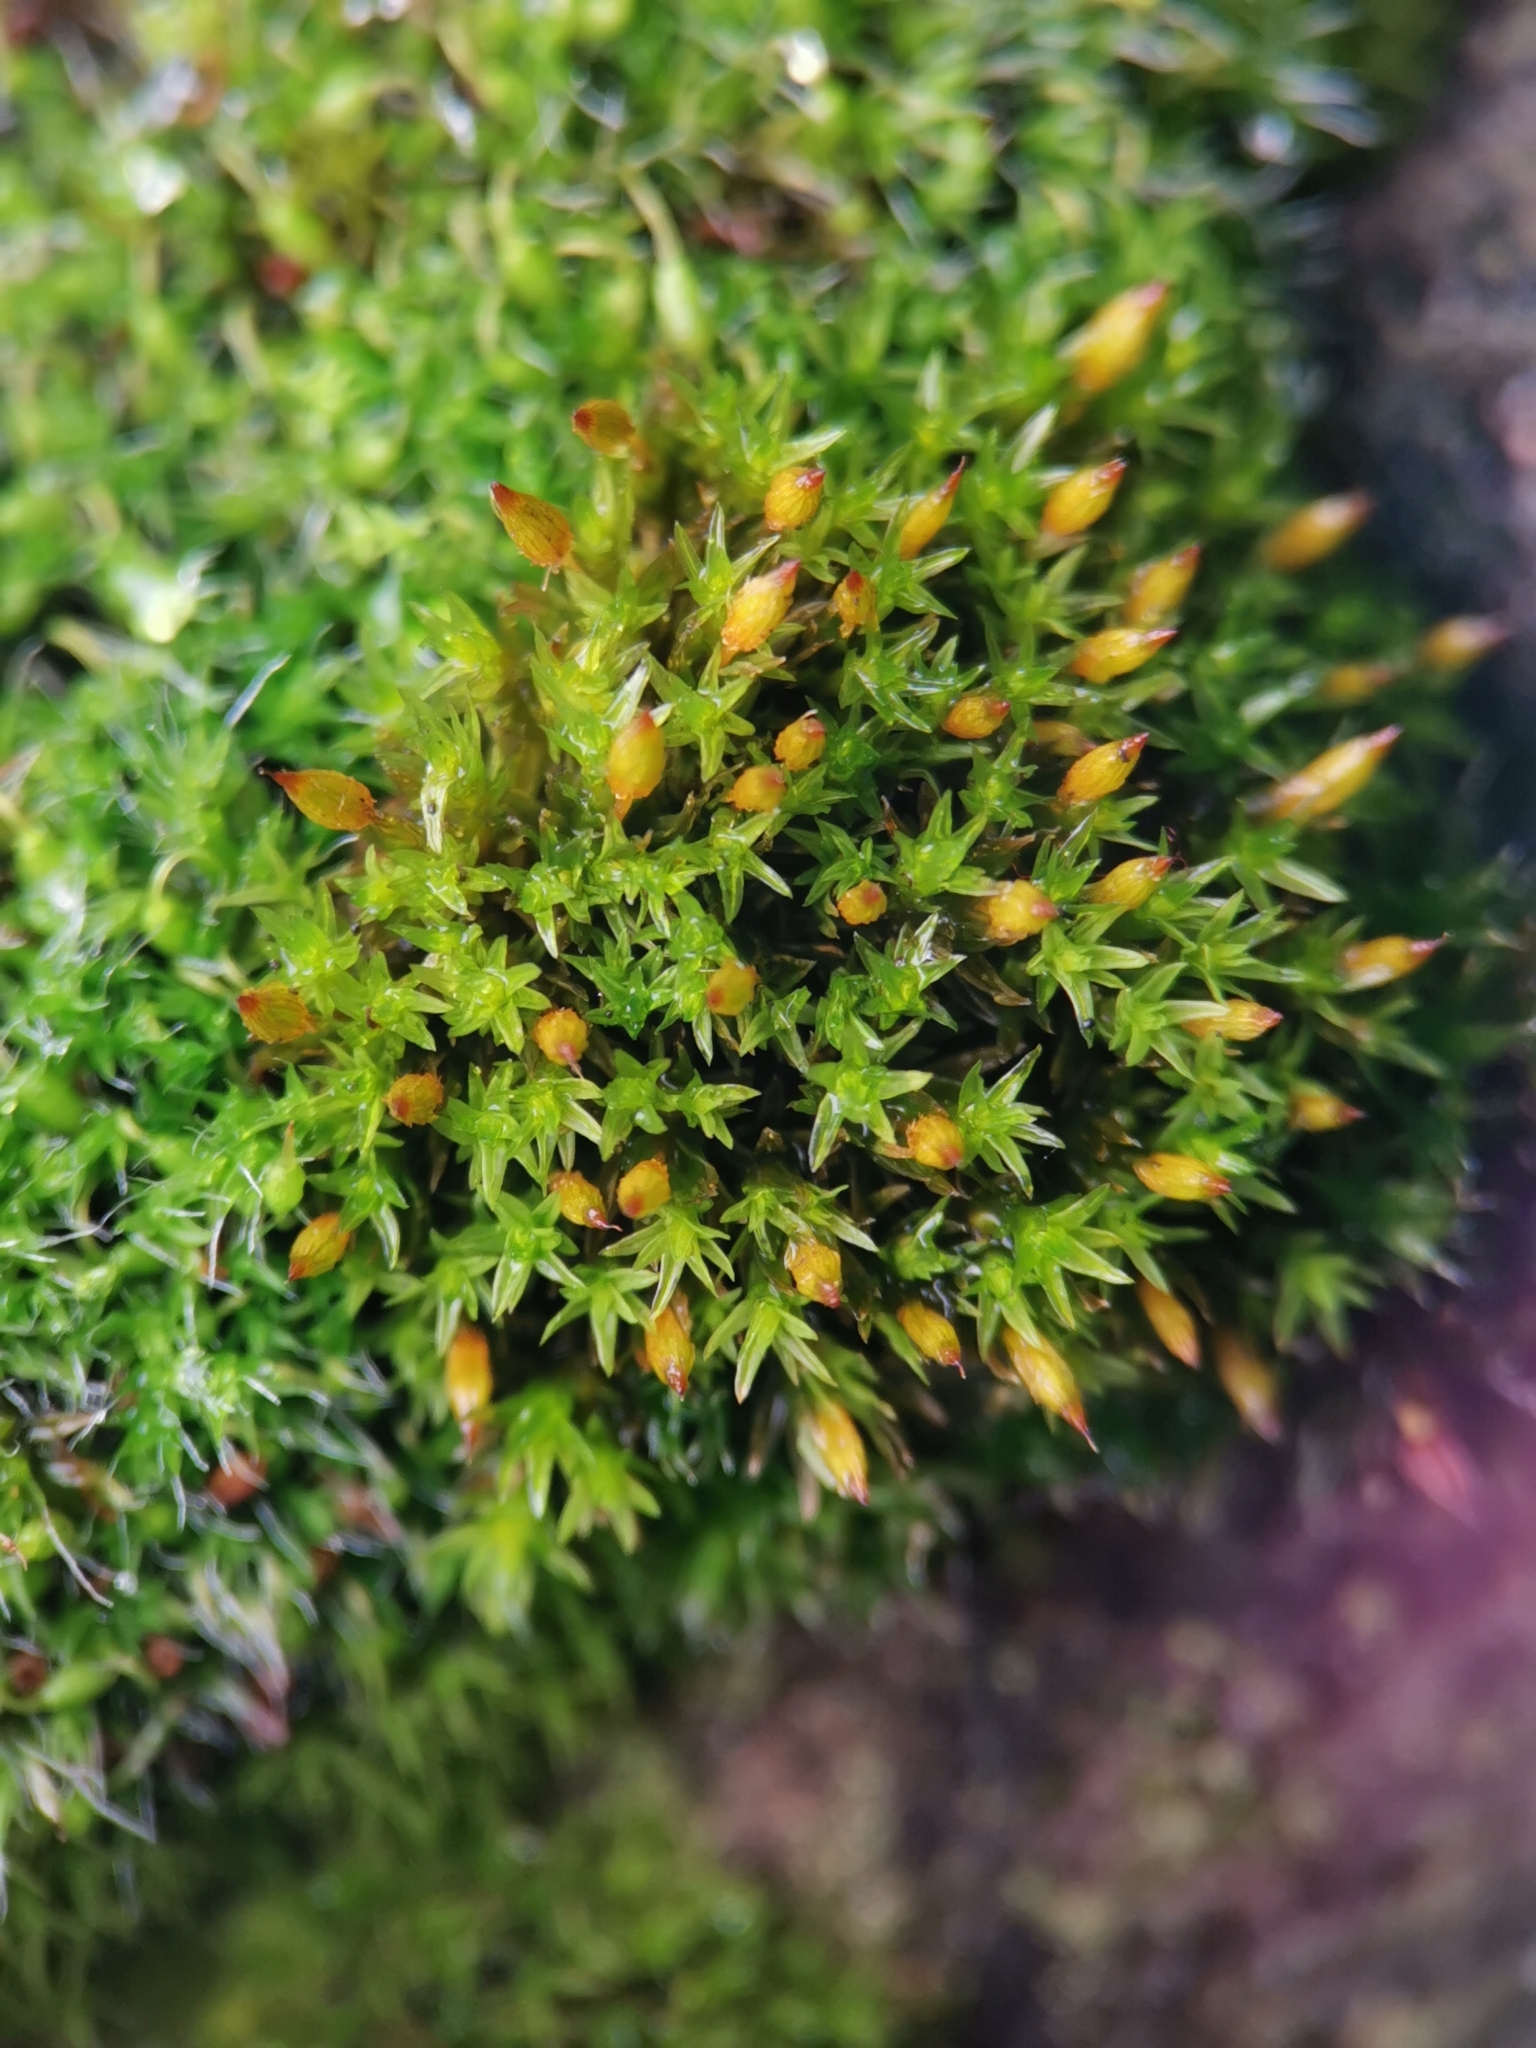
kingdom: Plantae
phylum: Bryophyta
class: Bryopsida
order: Orthotrichales
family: Orthotrichaceae
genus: Orthotrichum
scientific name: Orthotrichum anomalum
